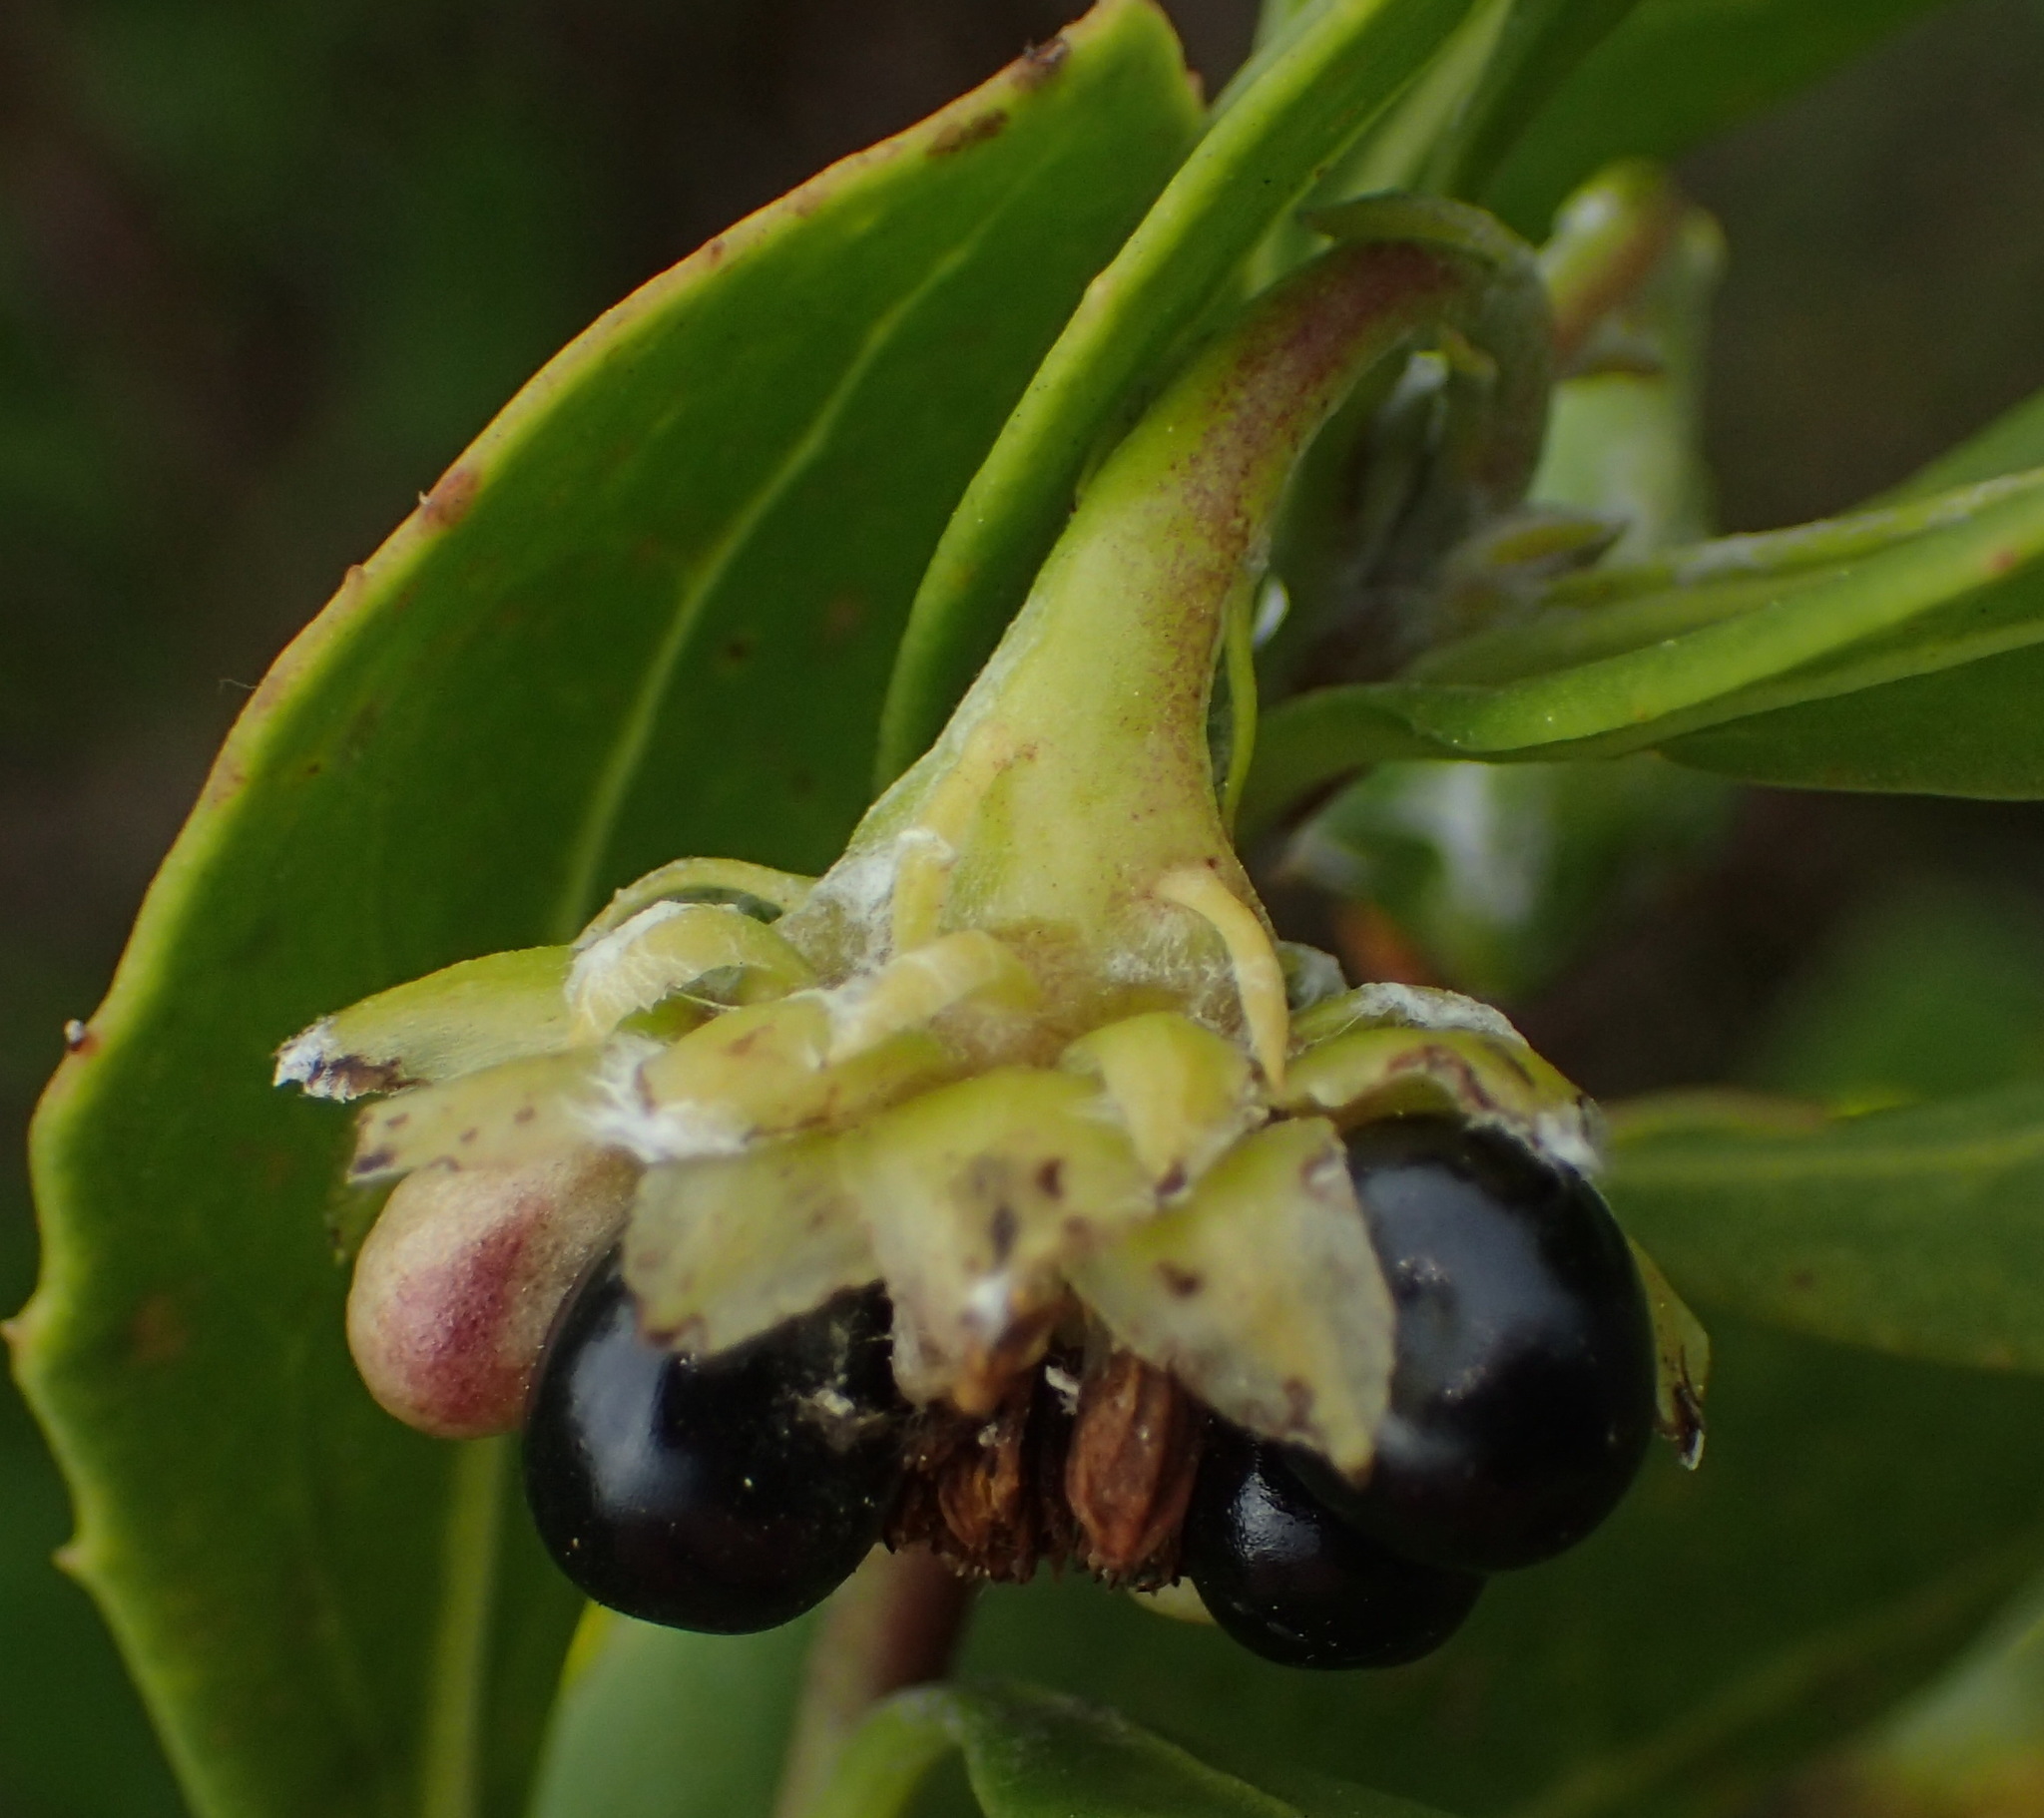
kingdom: Plantae
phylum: Tracheophyta
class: Magnoliopsida
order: Asterales
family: Asteraceae
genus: Osteospermum
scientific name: Osteospermum moniliferum
